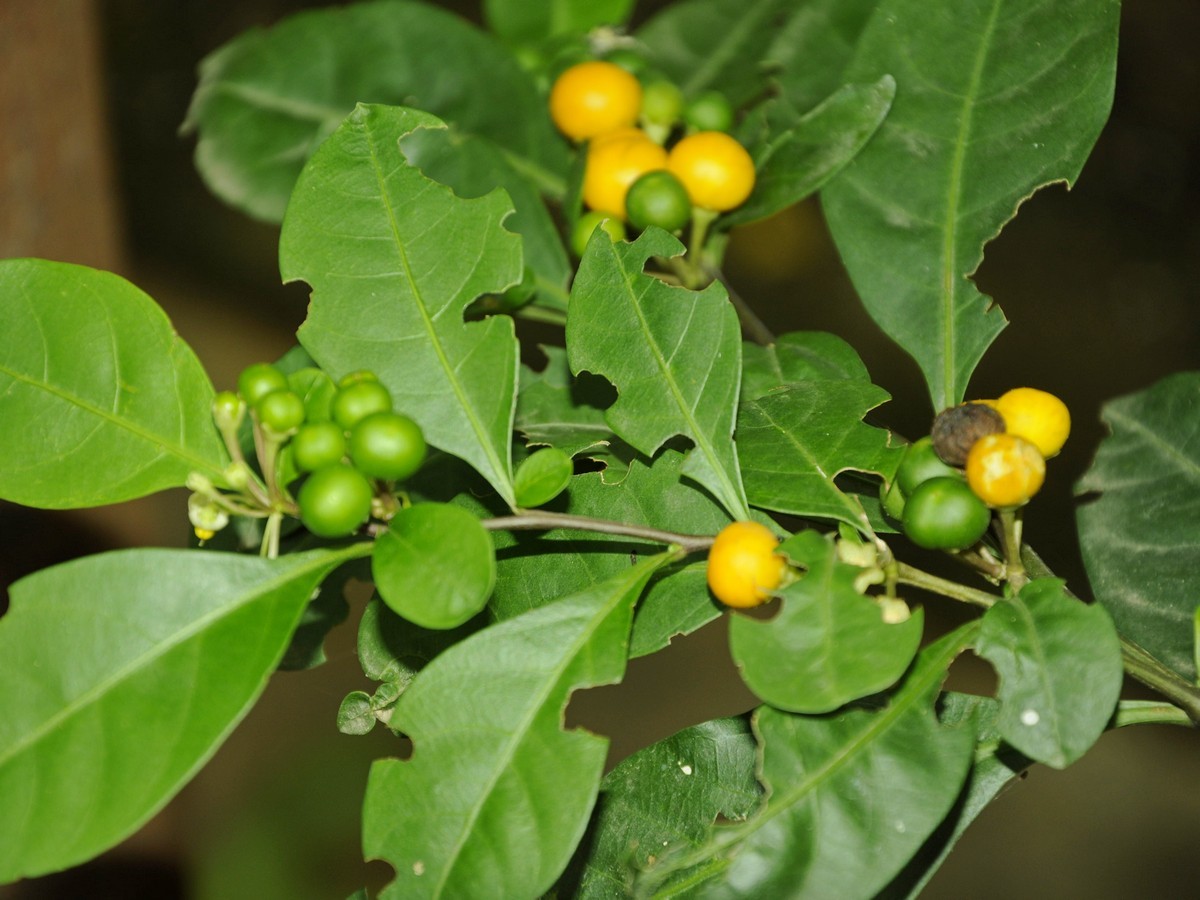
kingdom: Plantae
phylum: Tracheophyta
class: Magnoliopsida
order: Solanales
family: Solanaceae
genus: Solanum
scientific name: Solanum diphyllum
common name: Twoleaf nightshade
